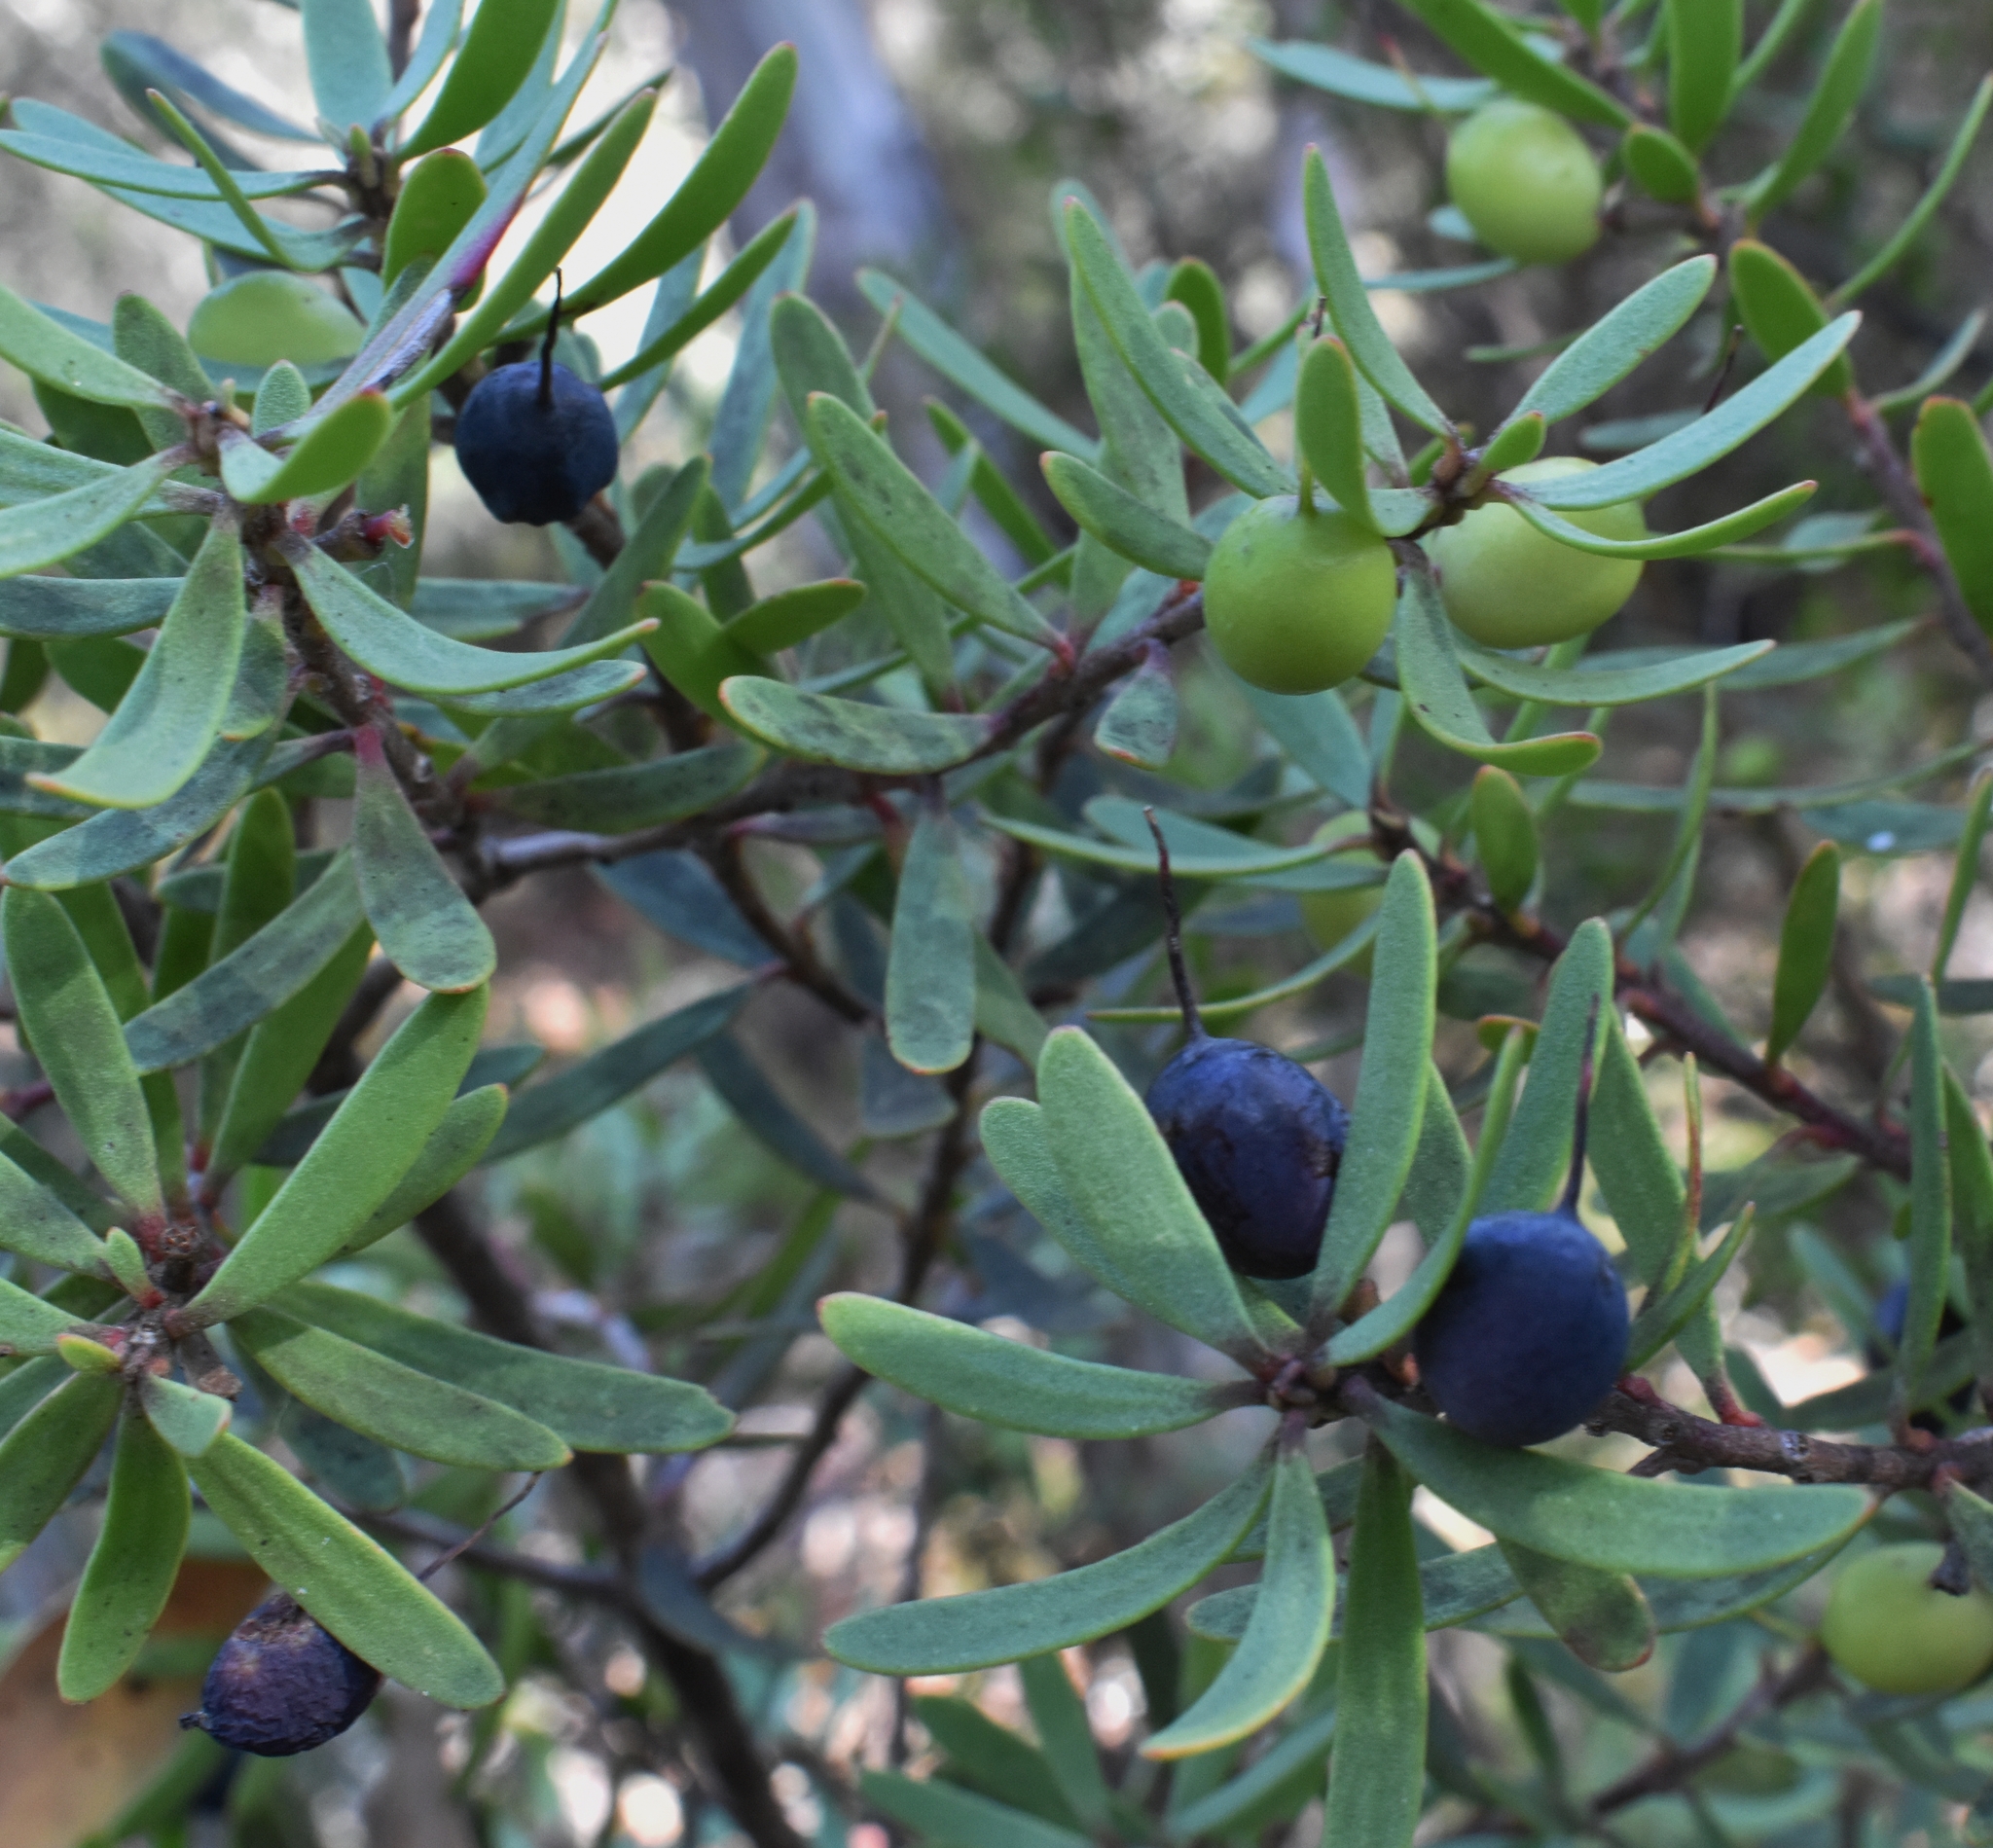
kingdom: Plantae
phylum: Tracheophyta
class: Magnoliopsida
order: Proteales
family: Proteaceae
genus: Persoonia
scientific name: Persoonia muelleri
